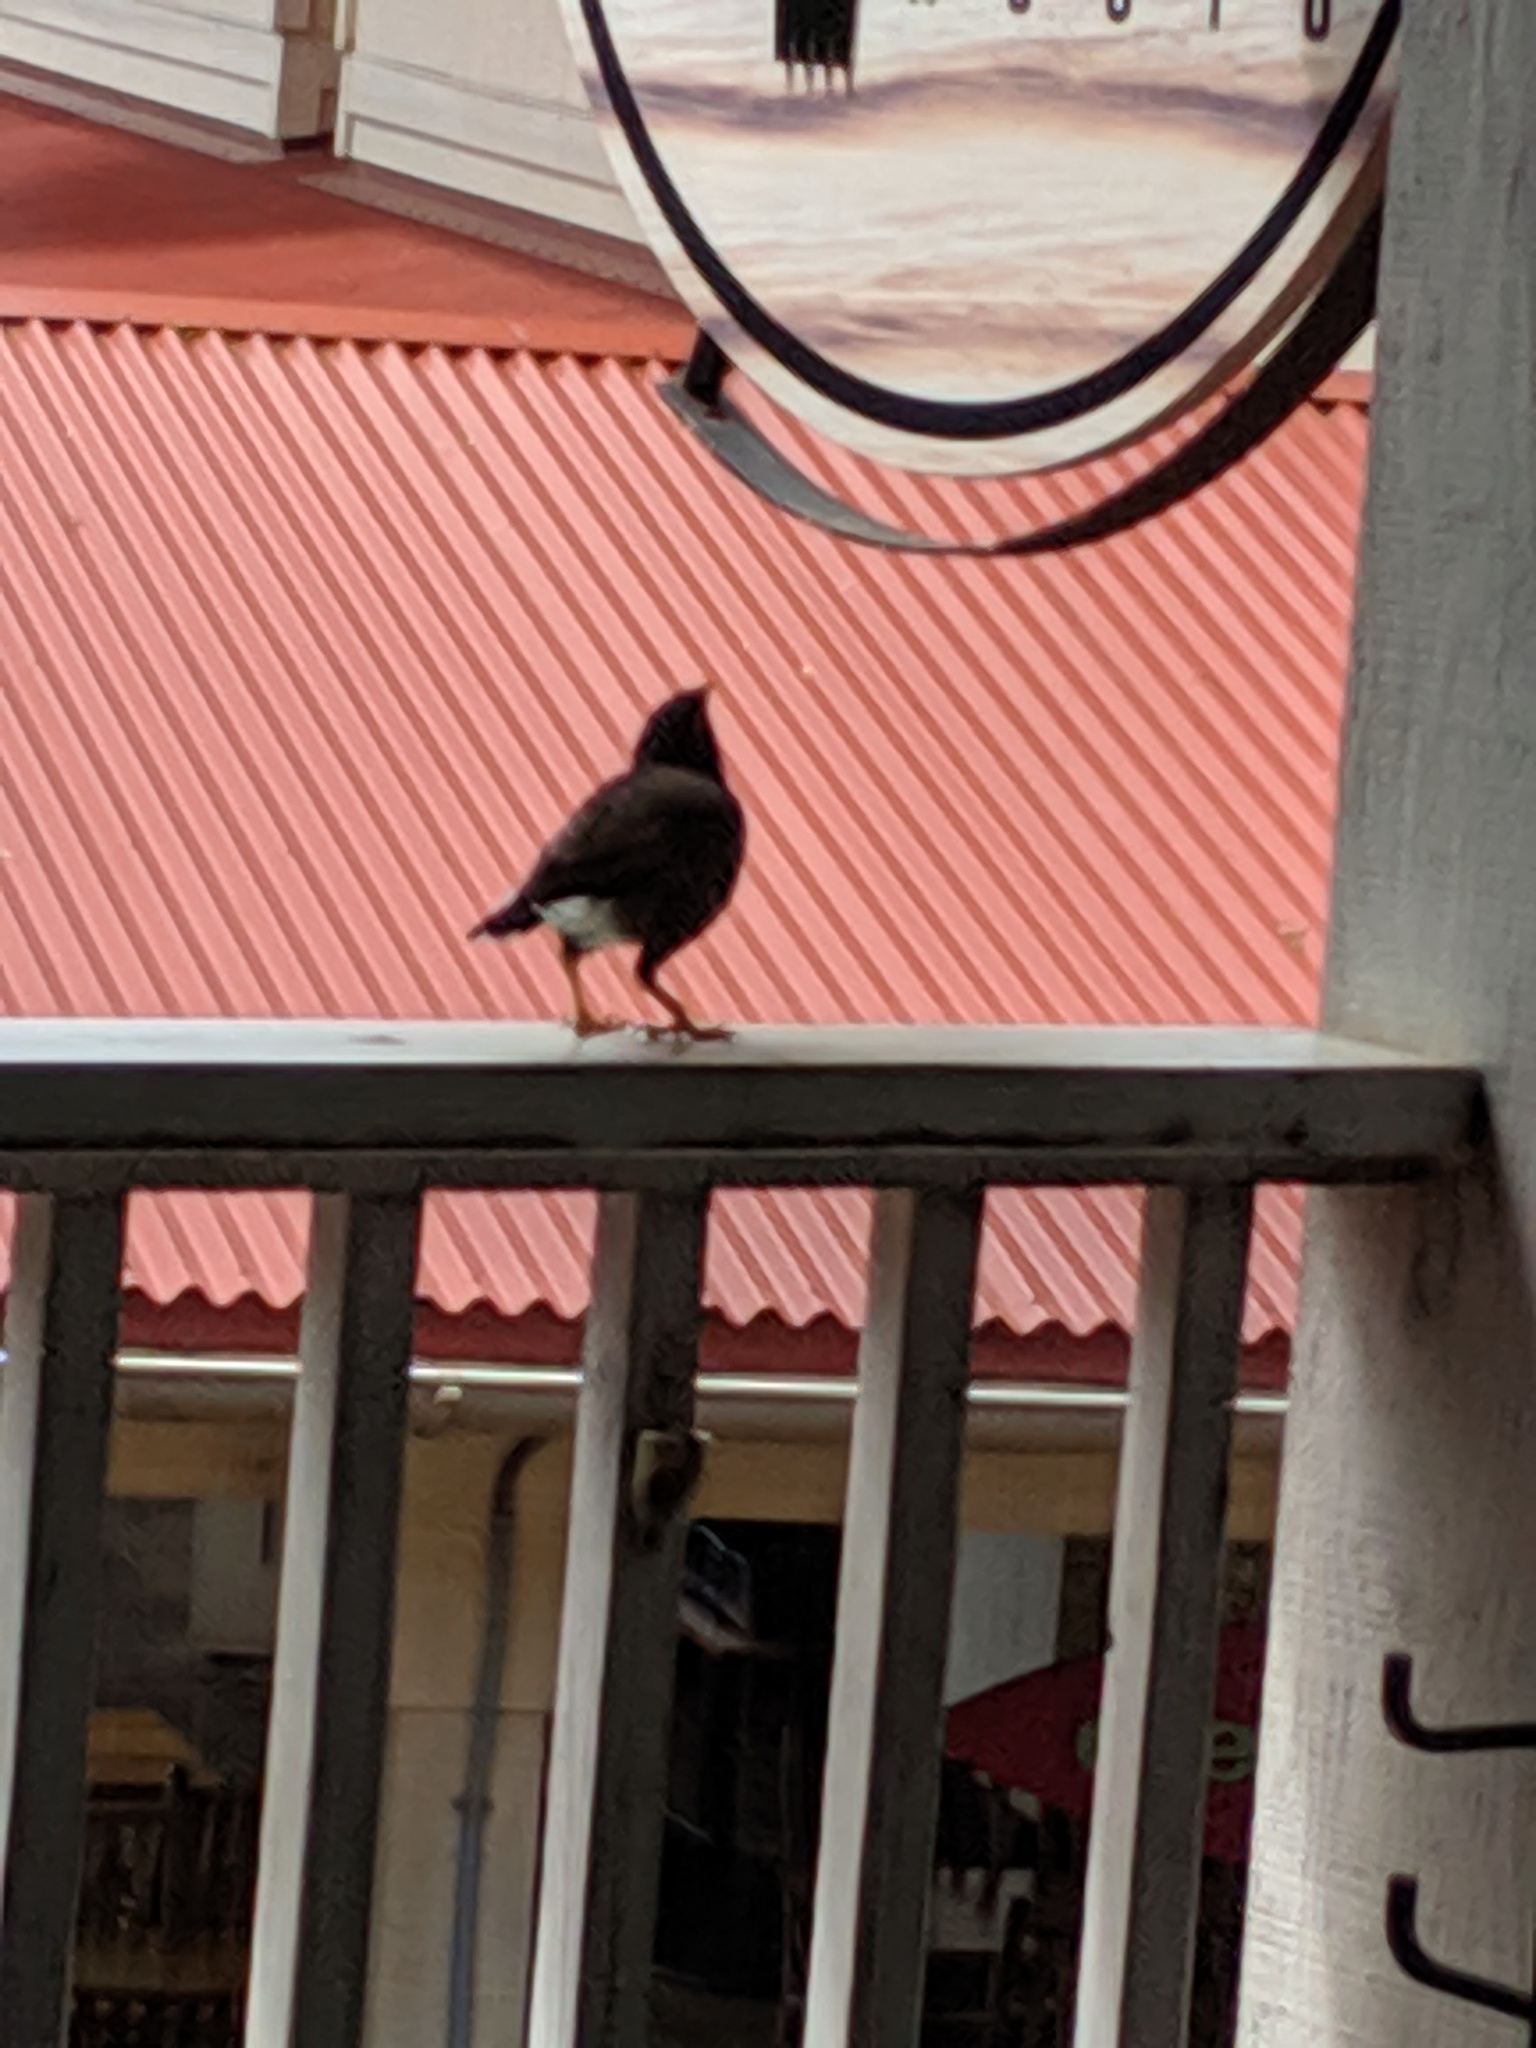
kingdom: Animalia
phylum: Chordata
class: Aves
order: Passeriformes
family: Sturnidae
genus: Acridotheres
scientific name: Acridotheres tristis
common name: Common myna
